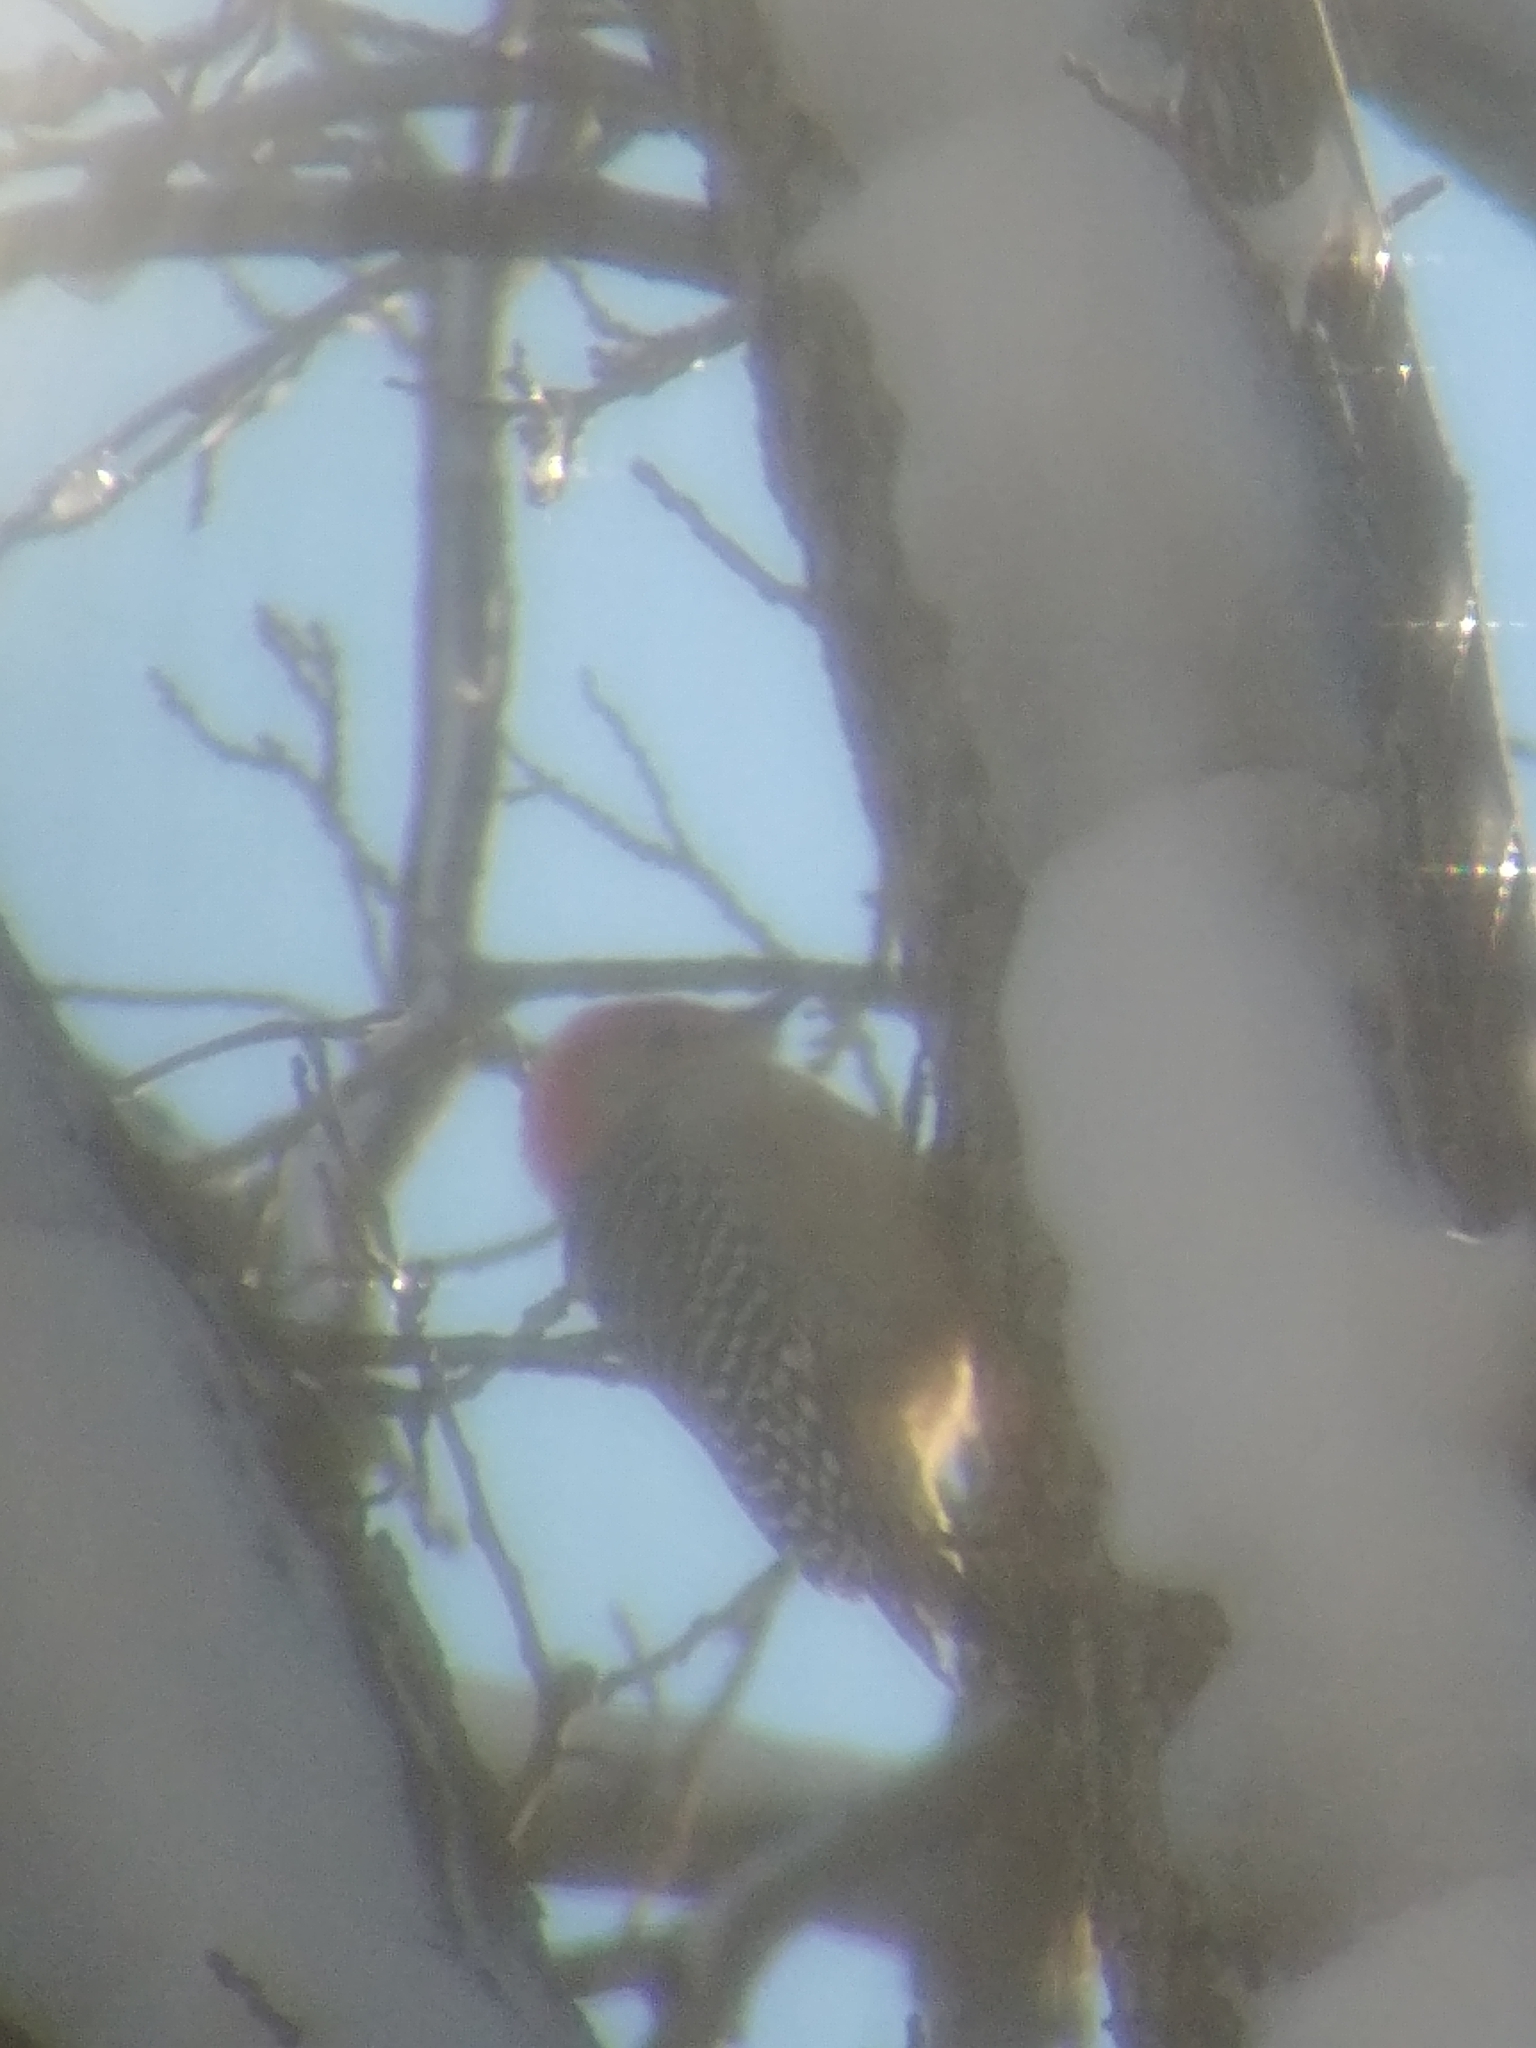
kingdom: Animalia
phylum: Chordata
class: Aves
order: Piciformes
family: Picidae
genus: Melanerpes
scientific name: Melanerpes carolinus
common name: Red-bellied woodpecker
